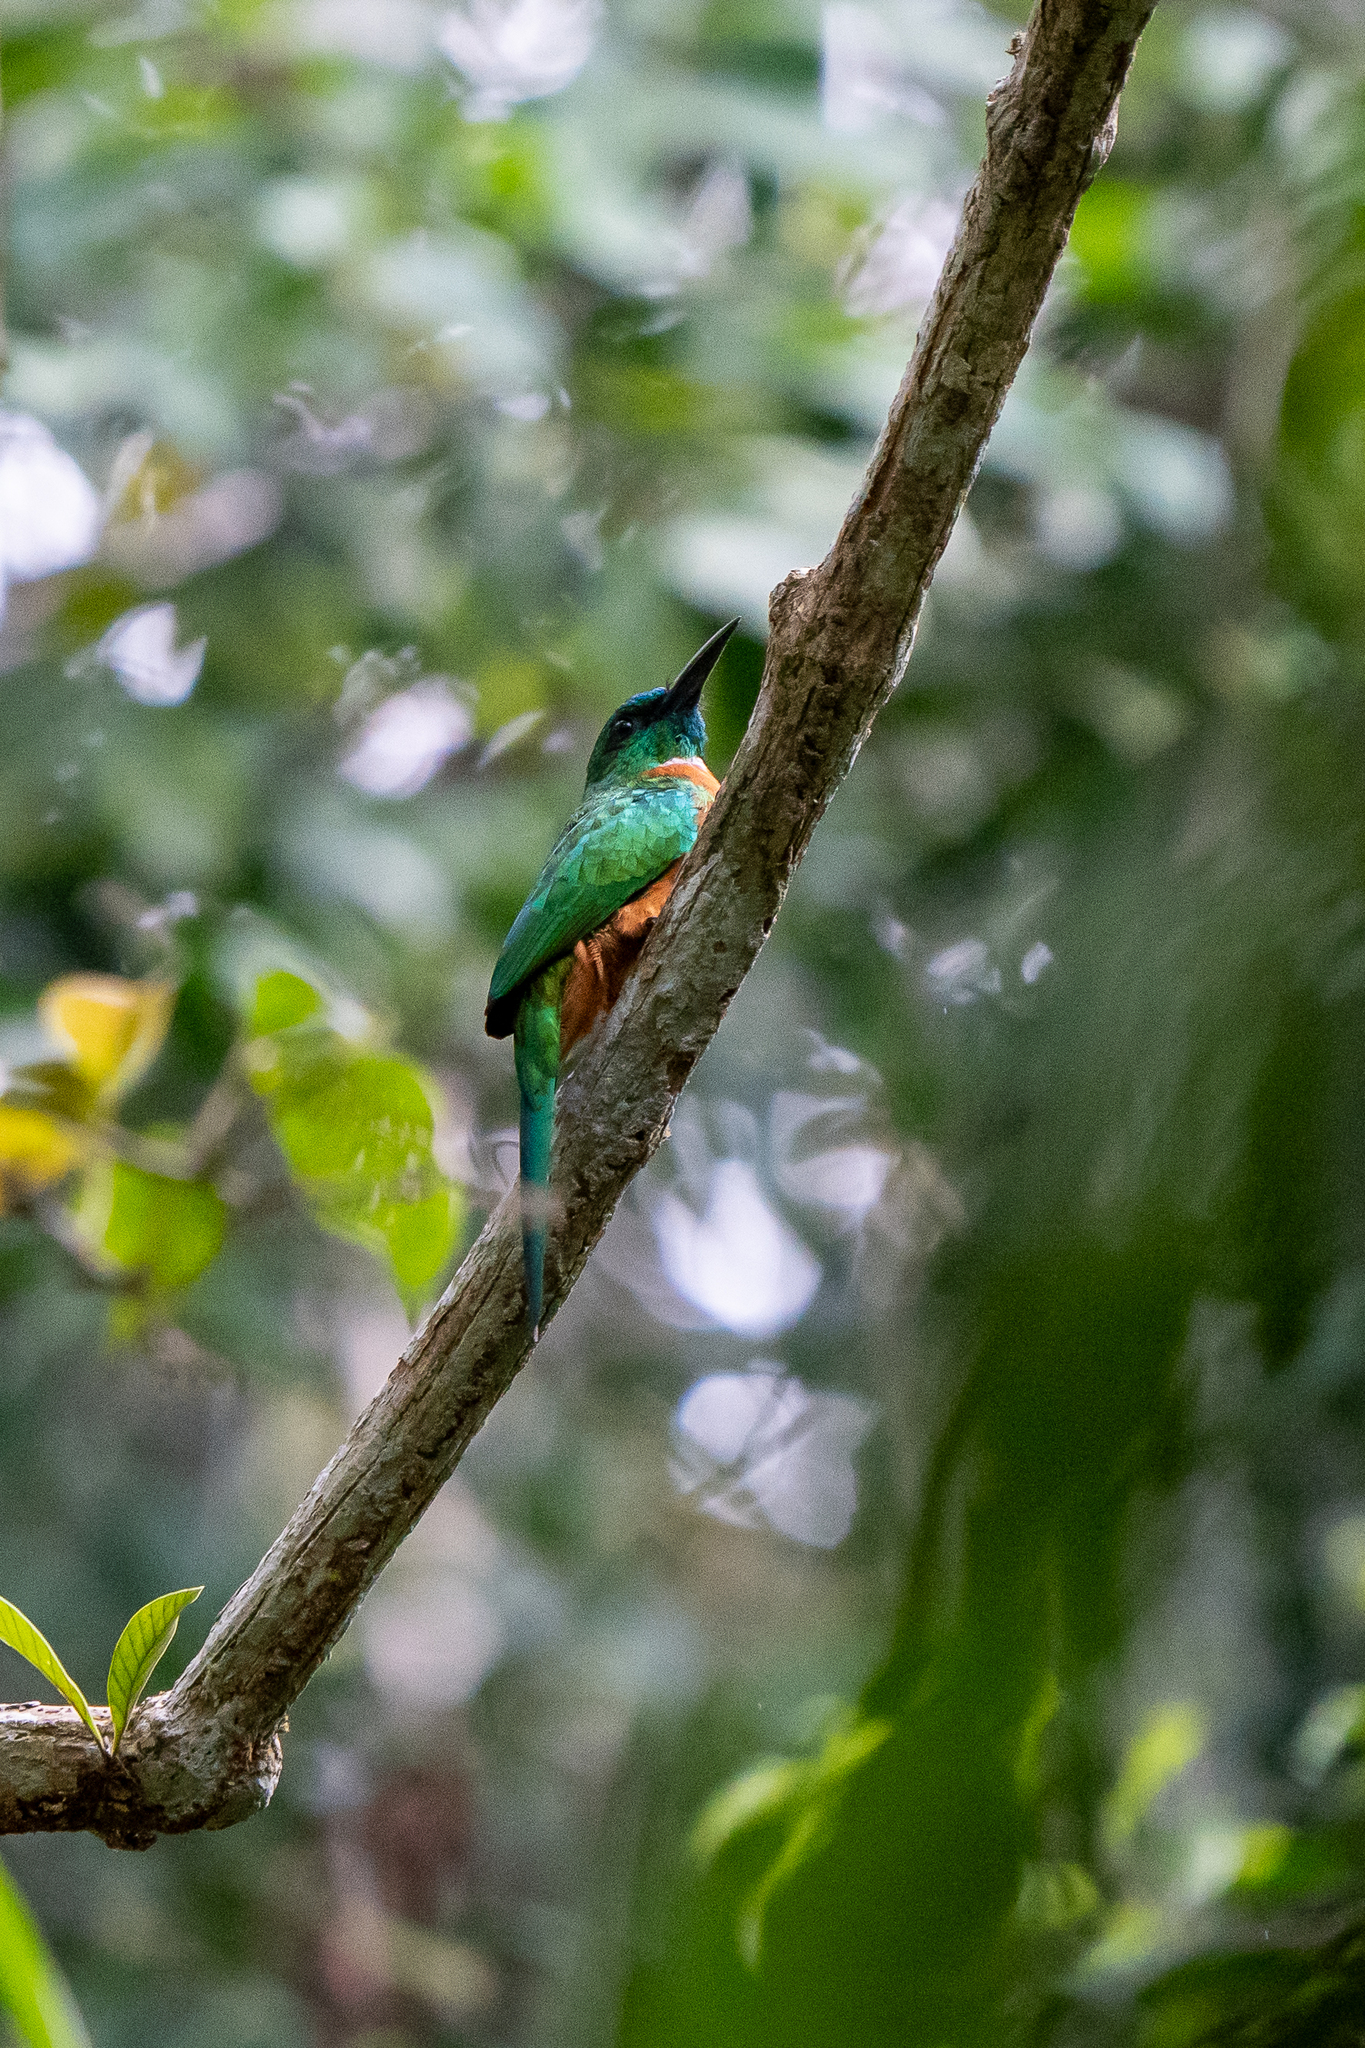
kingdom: Animalia
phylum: Chordata
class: Aves
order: Piciformes
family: Galbulidae
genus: Jacamerops
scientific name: Jacamerops aureus
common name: Great jacamar
